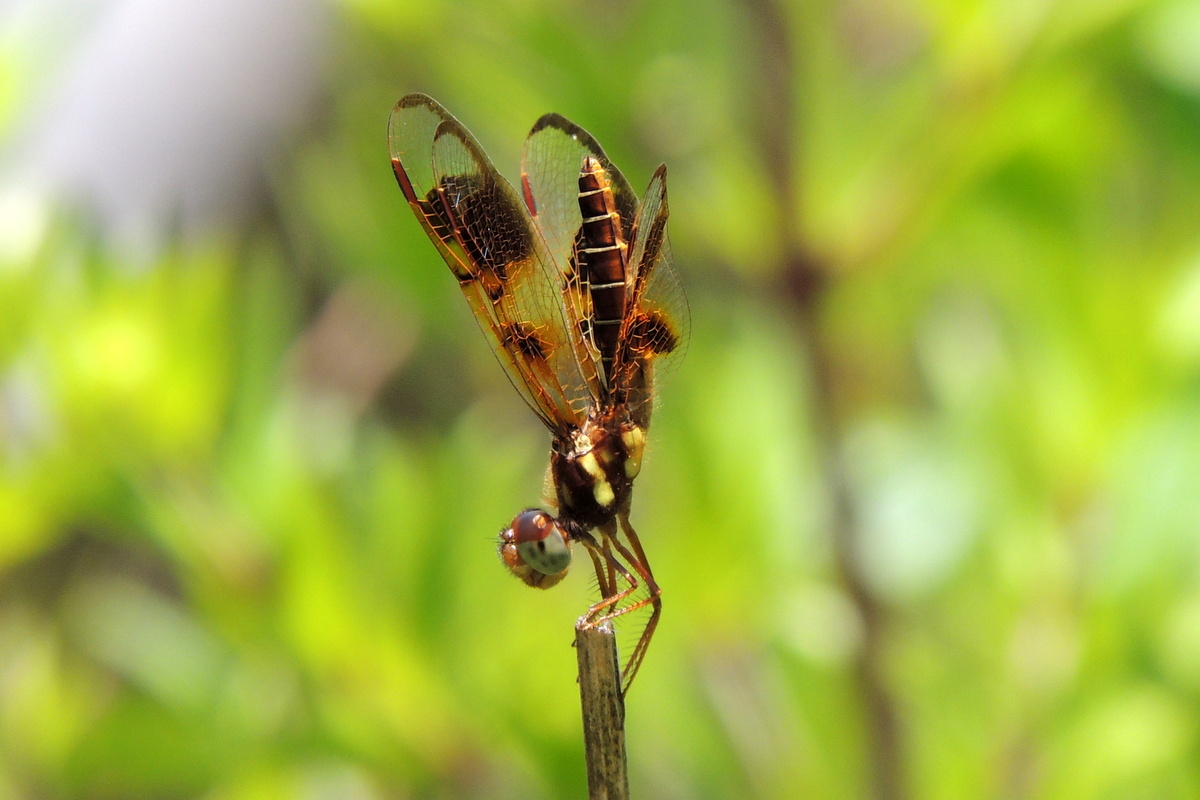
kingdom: Animalia
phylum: Arthropoda
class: Insecta
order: Odonata
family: Libellulidae
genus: Perithemis
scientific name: Perithemis tenera
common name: Eastern amberwing
